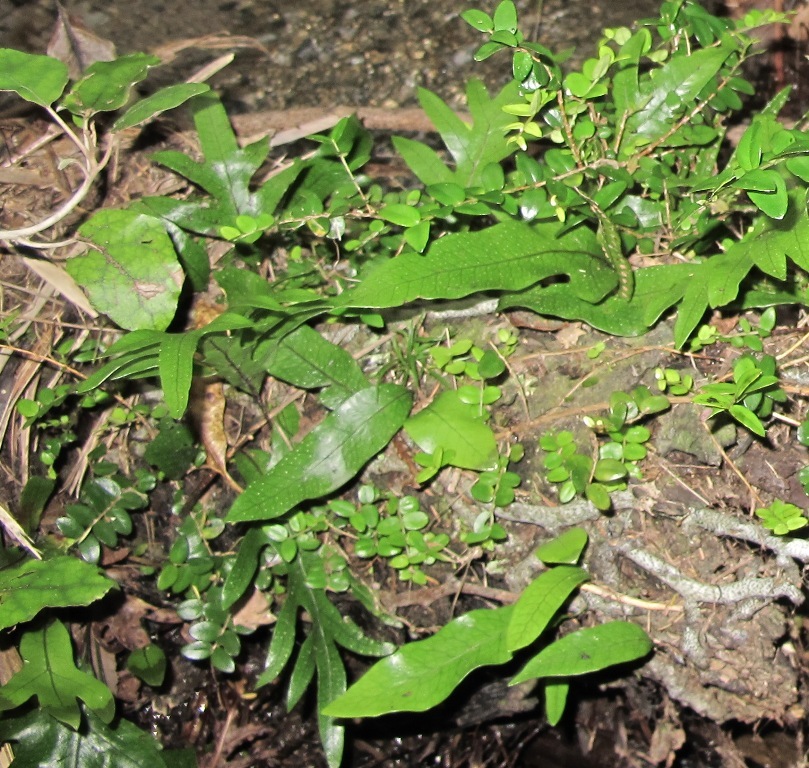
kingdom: Plantae
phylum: Tracheophyta
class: Polypodiopsida
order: Polypodiales
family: Polypodiaceae
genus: Lecanopteris
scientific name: Lecanopteris pustulata
